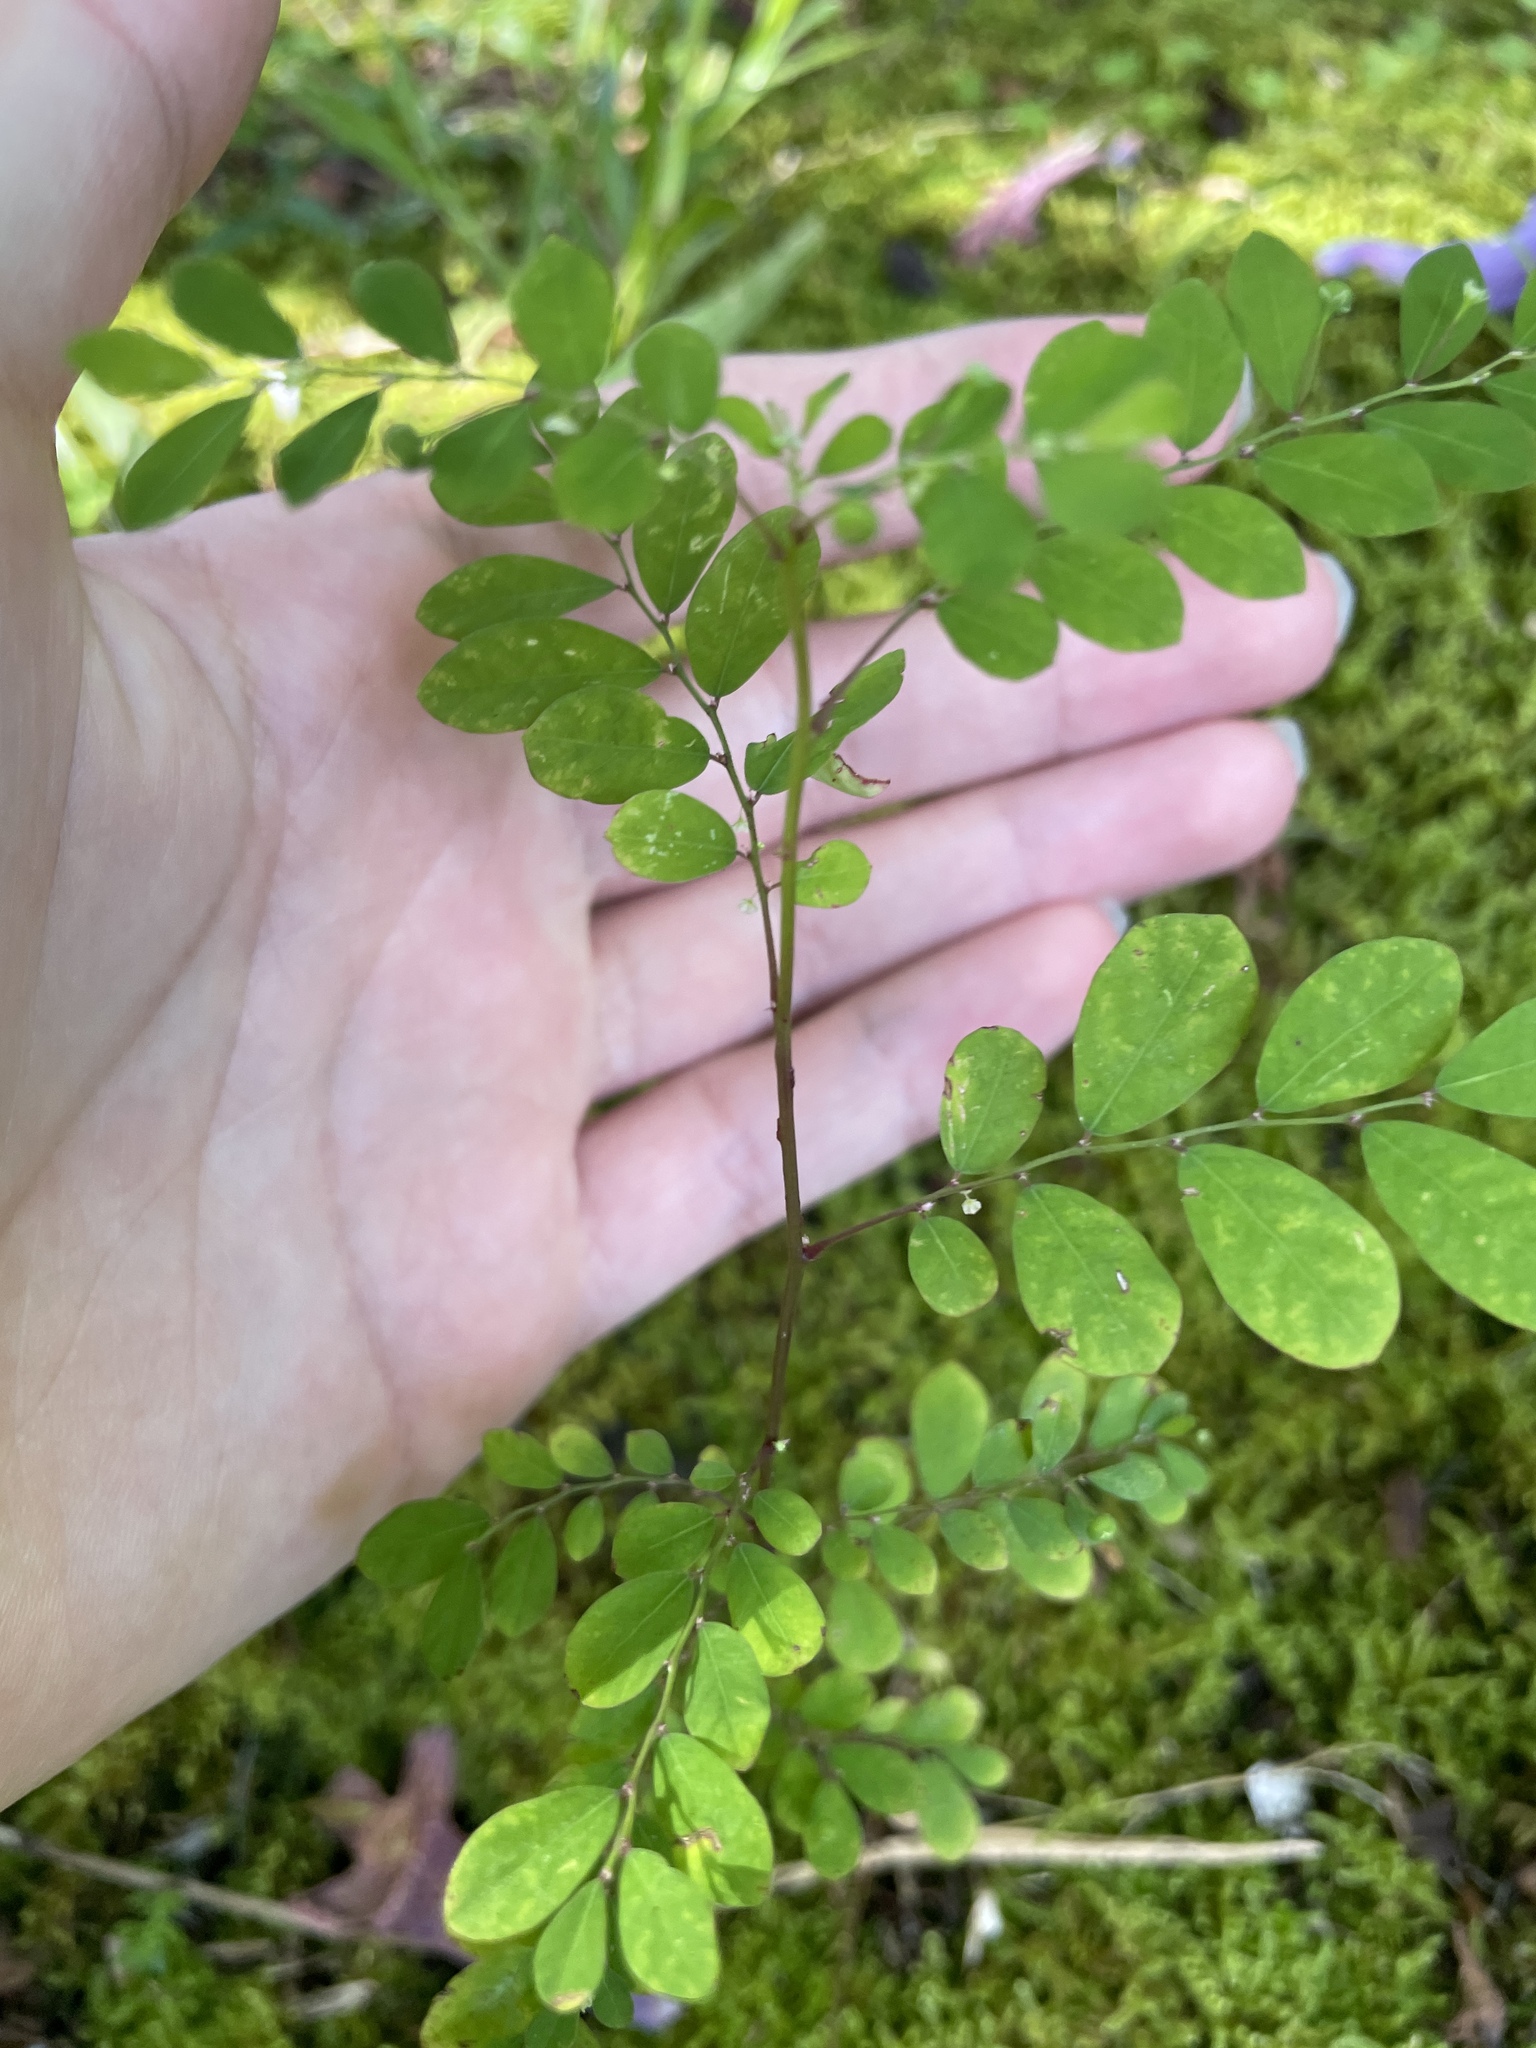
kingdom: Plantae
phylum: Tracheophyta
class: Magnoliopsida
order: Malpighiales
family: Phyllanthaceae
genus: Phyllanthus
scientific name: Phyllanthus tenellus
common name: Mascarene island leaf-flower
